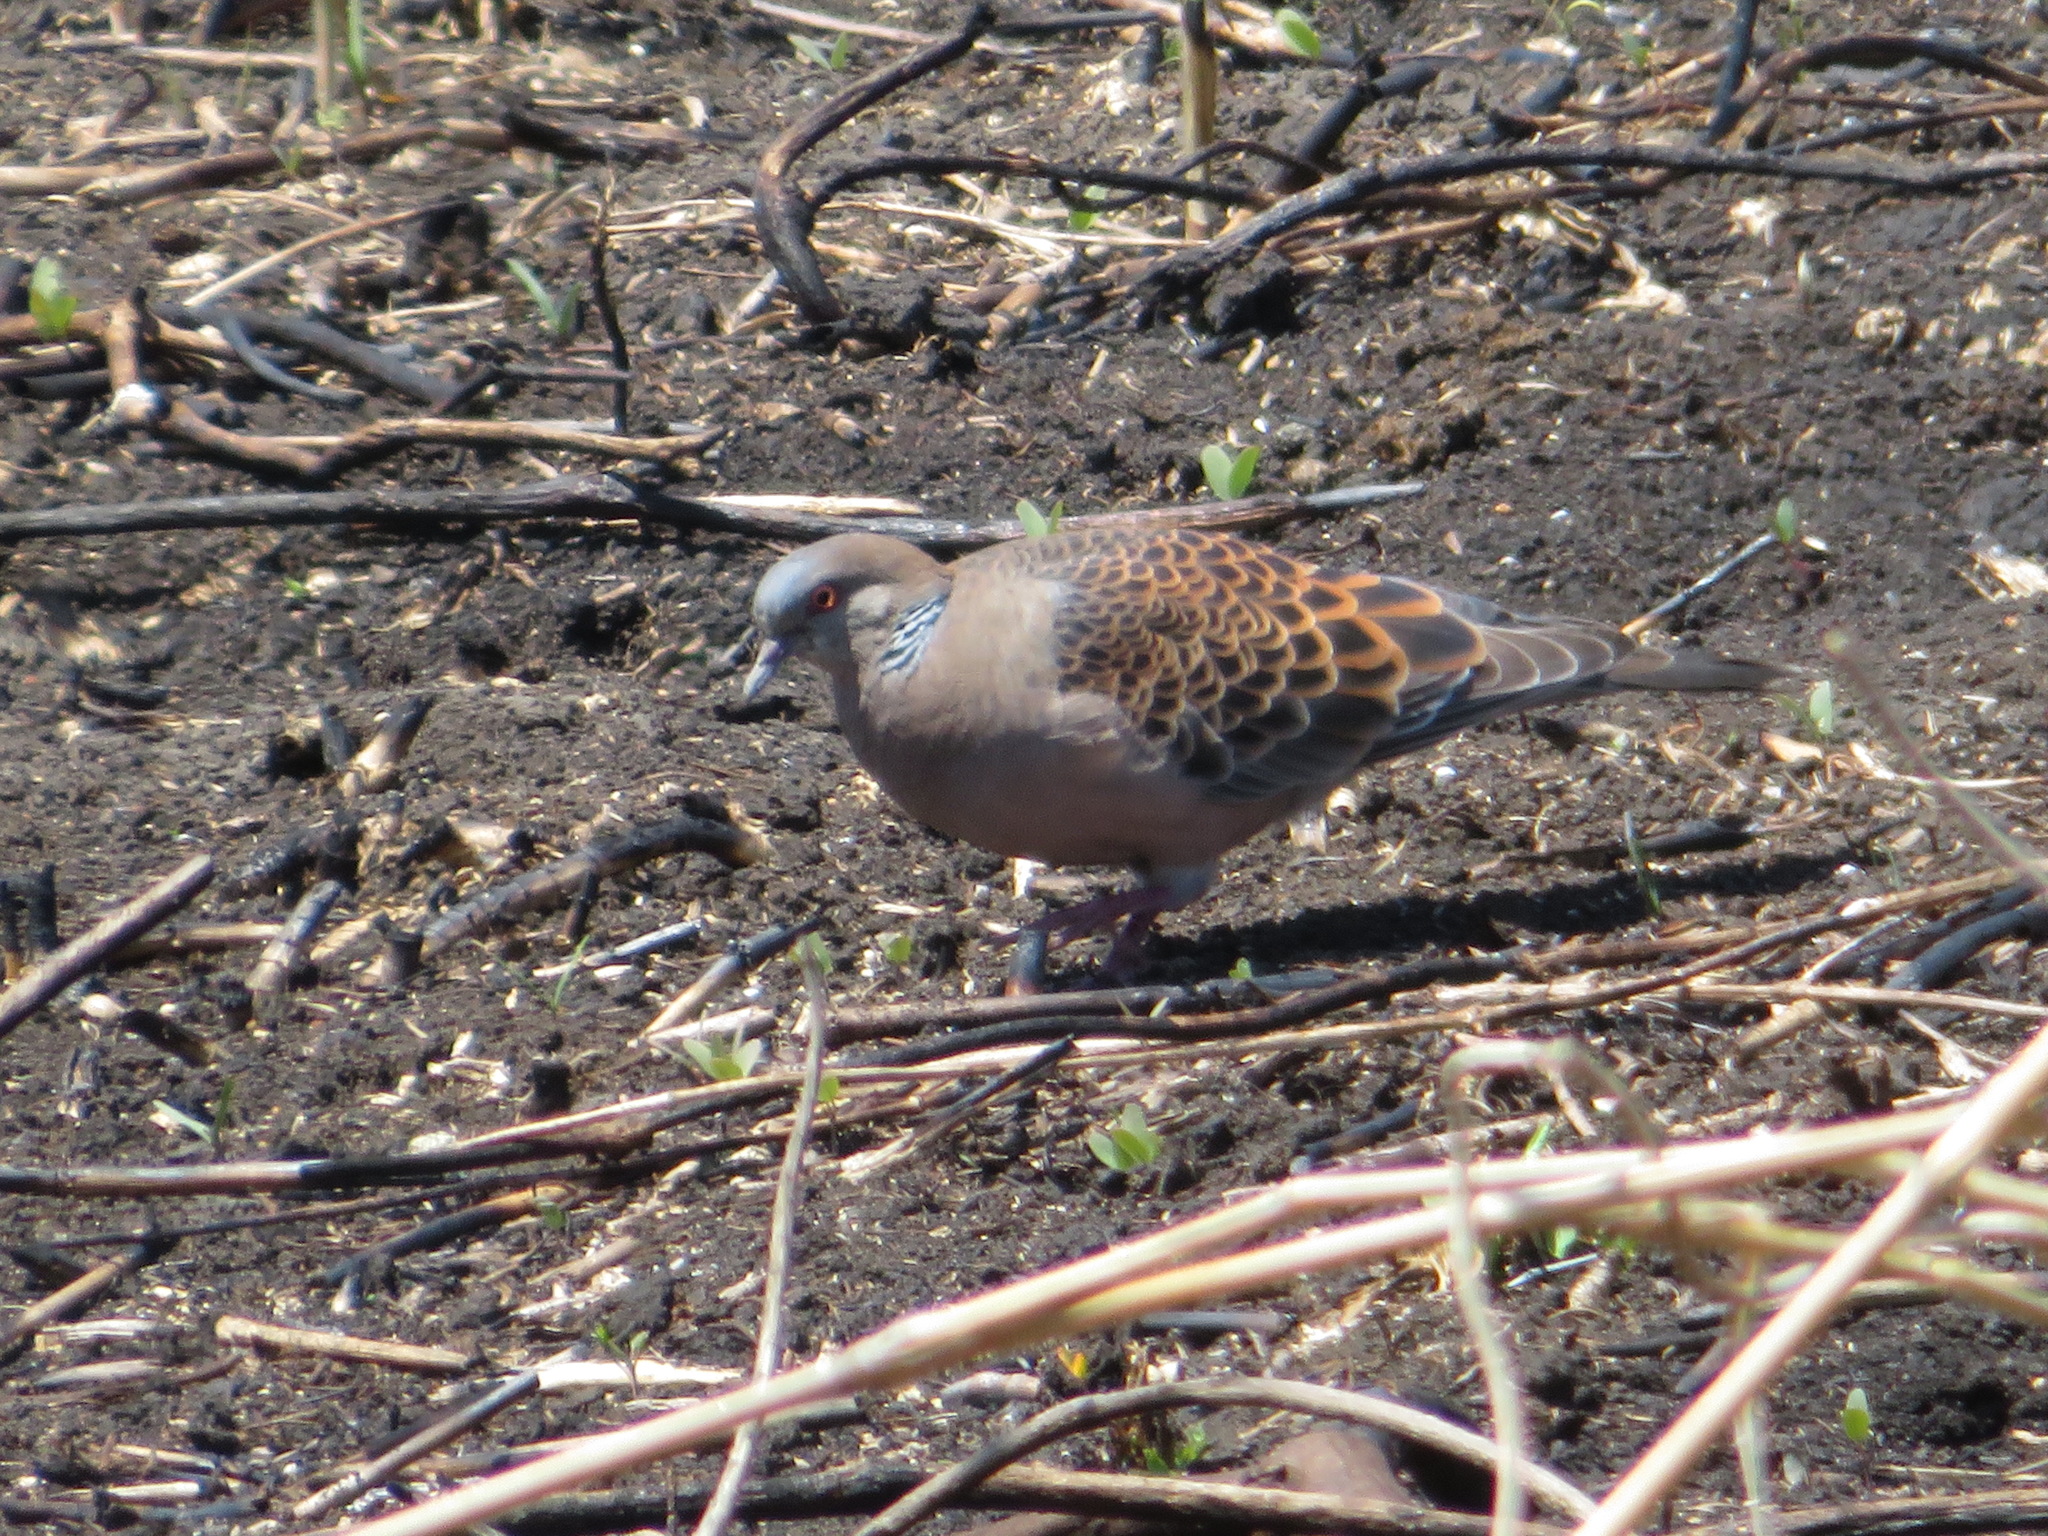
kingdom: Animalia
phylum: Chordata
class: Aves
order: Columbiformes
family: Columbidae
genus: Streptopelia
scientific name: Streptopelia orientalis
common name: Oriental turtle dove
